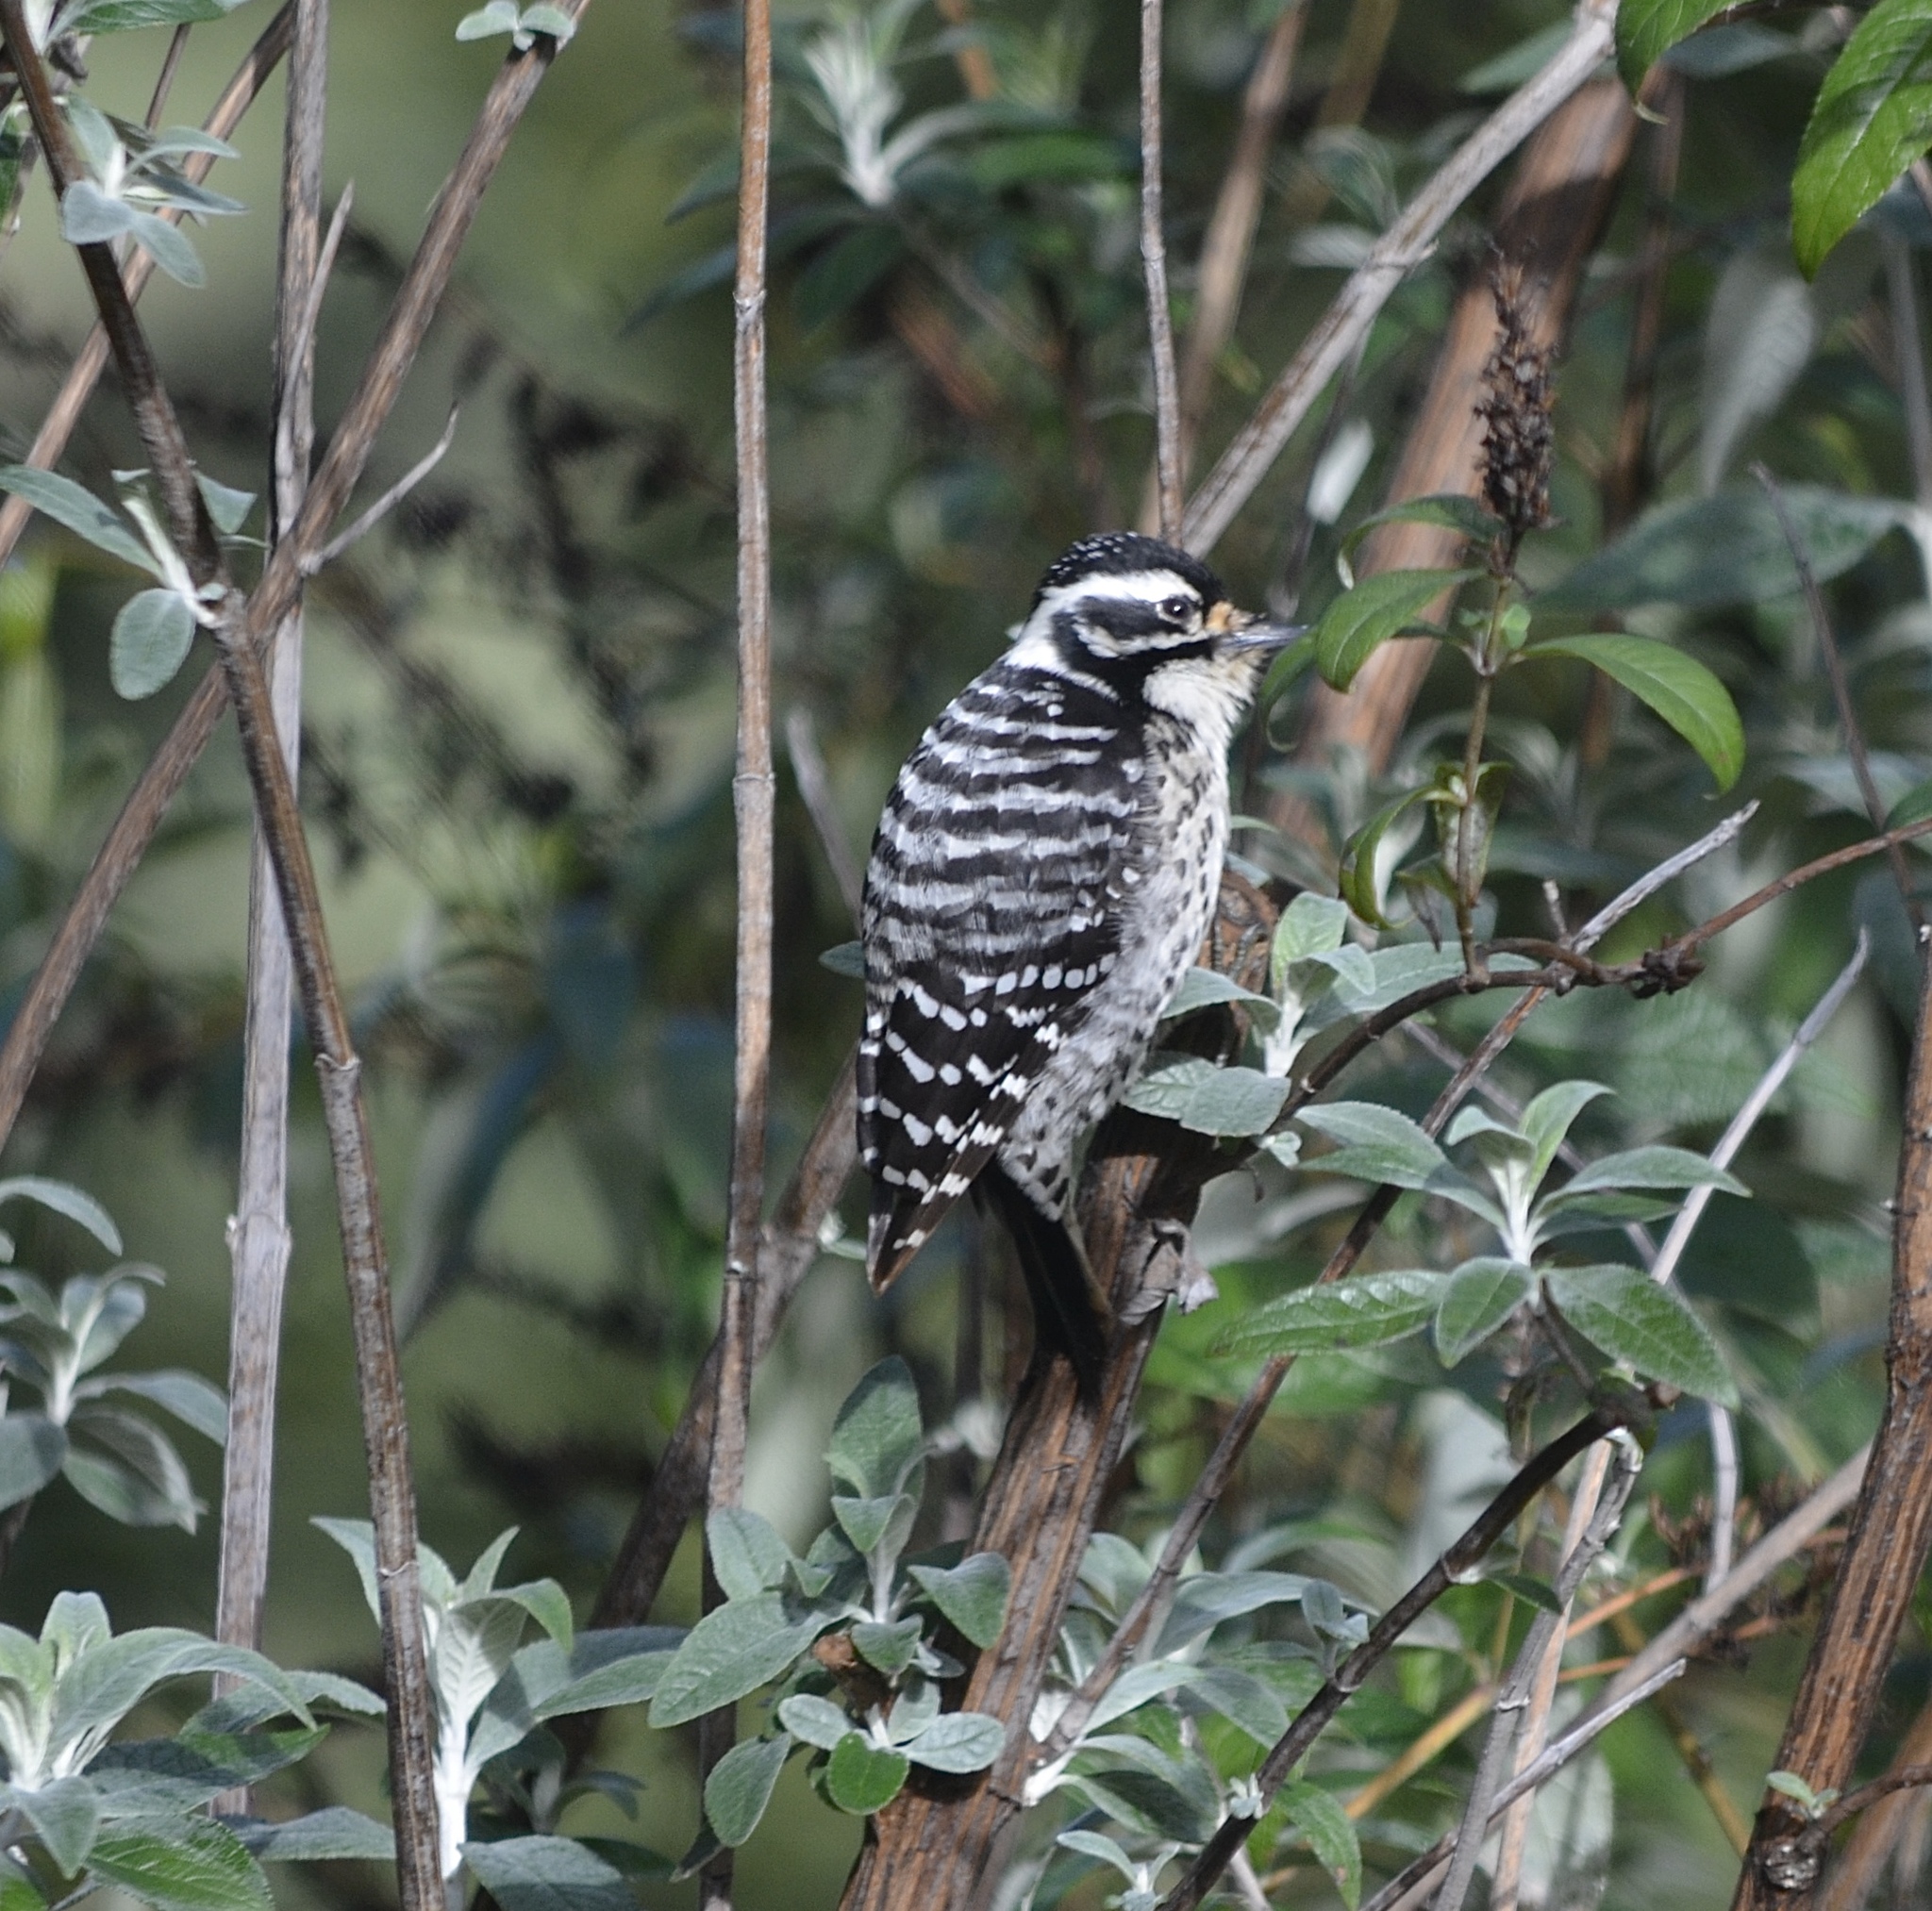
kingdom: Animalia
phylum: Chordata
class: Aves
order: Piciformes
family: Picidae
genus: Dryobates
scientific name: Dryobates nuttallii
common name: Nuttall's woodpecker
